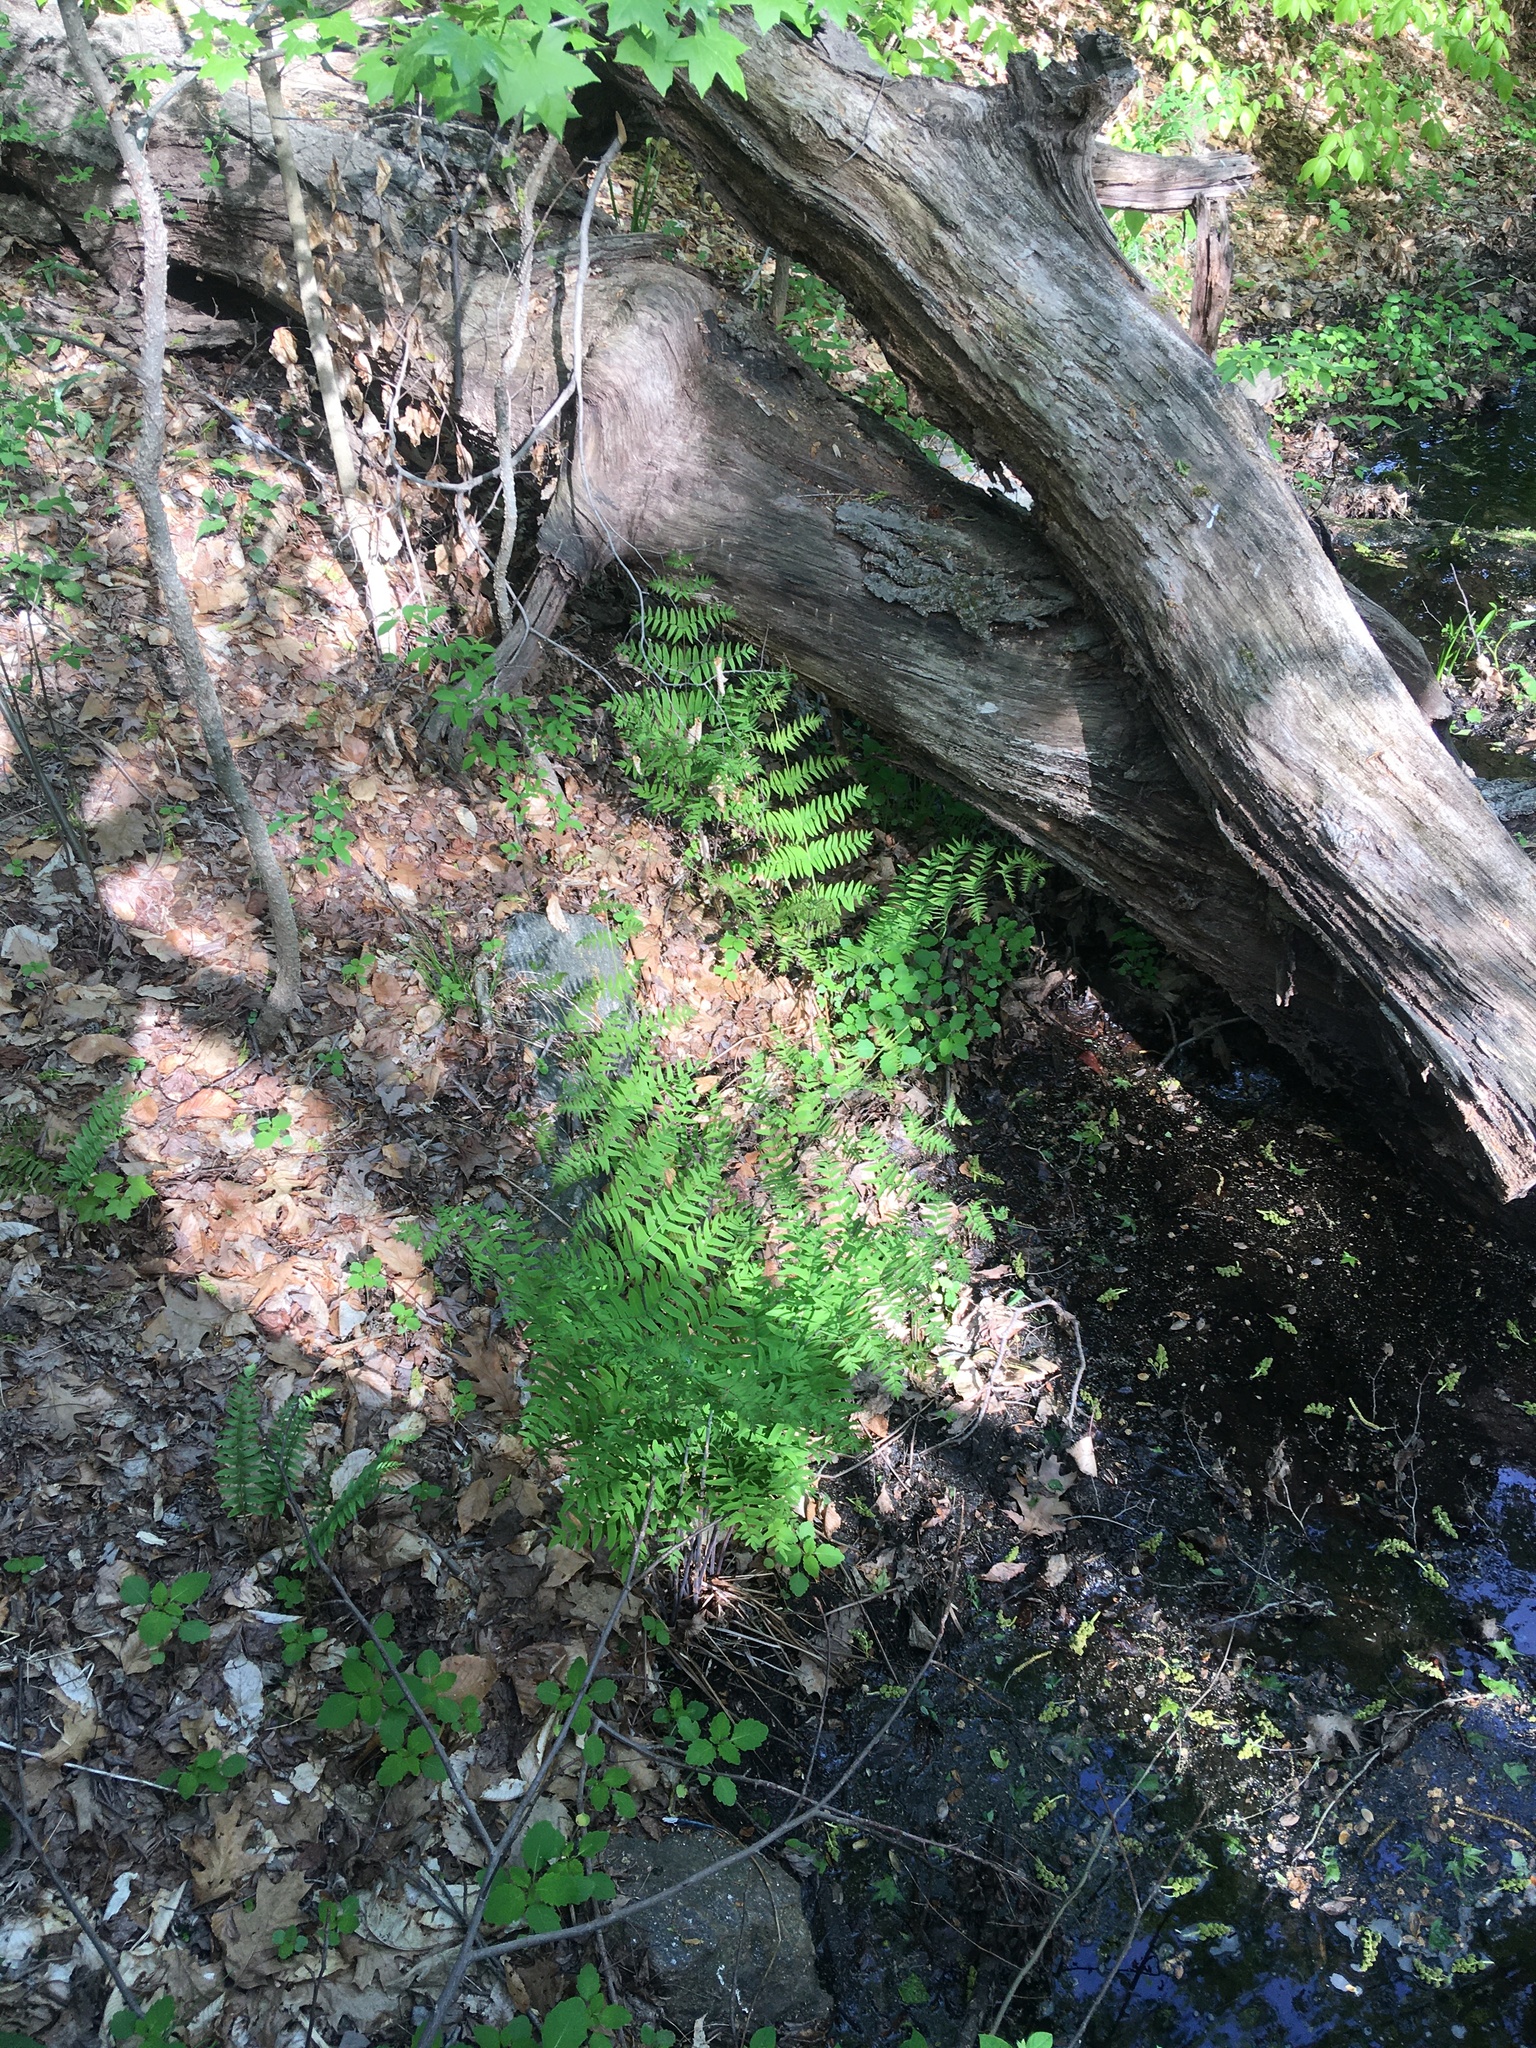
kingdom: Plantae
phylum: Tracheophyta
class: Polypodiopsida
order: Osmundales
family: Osmundaceae
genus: Osmunda
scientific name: Osmunda spectabilis
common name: American royal fern
